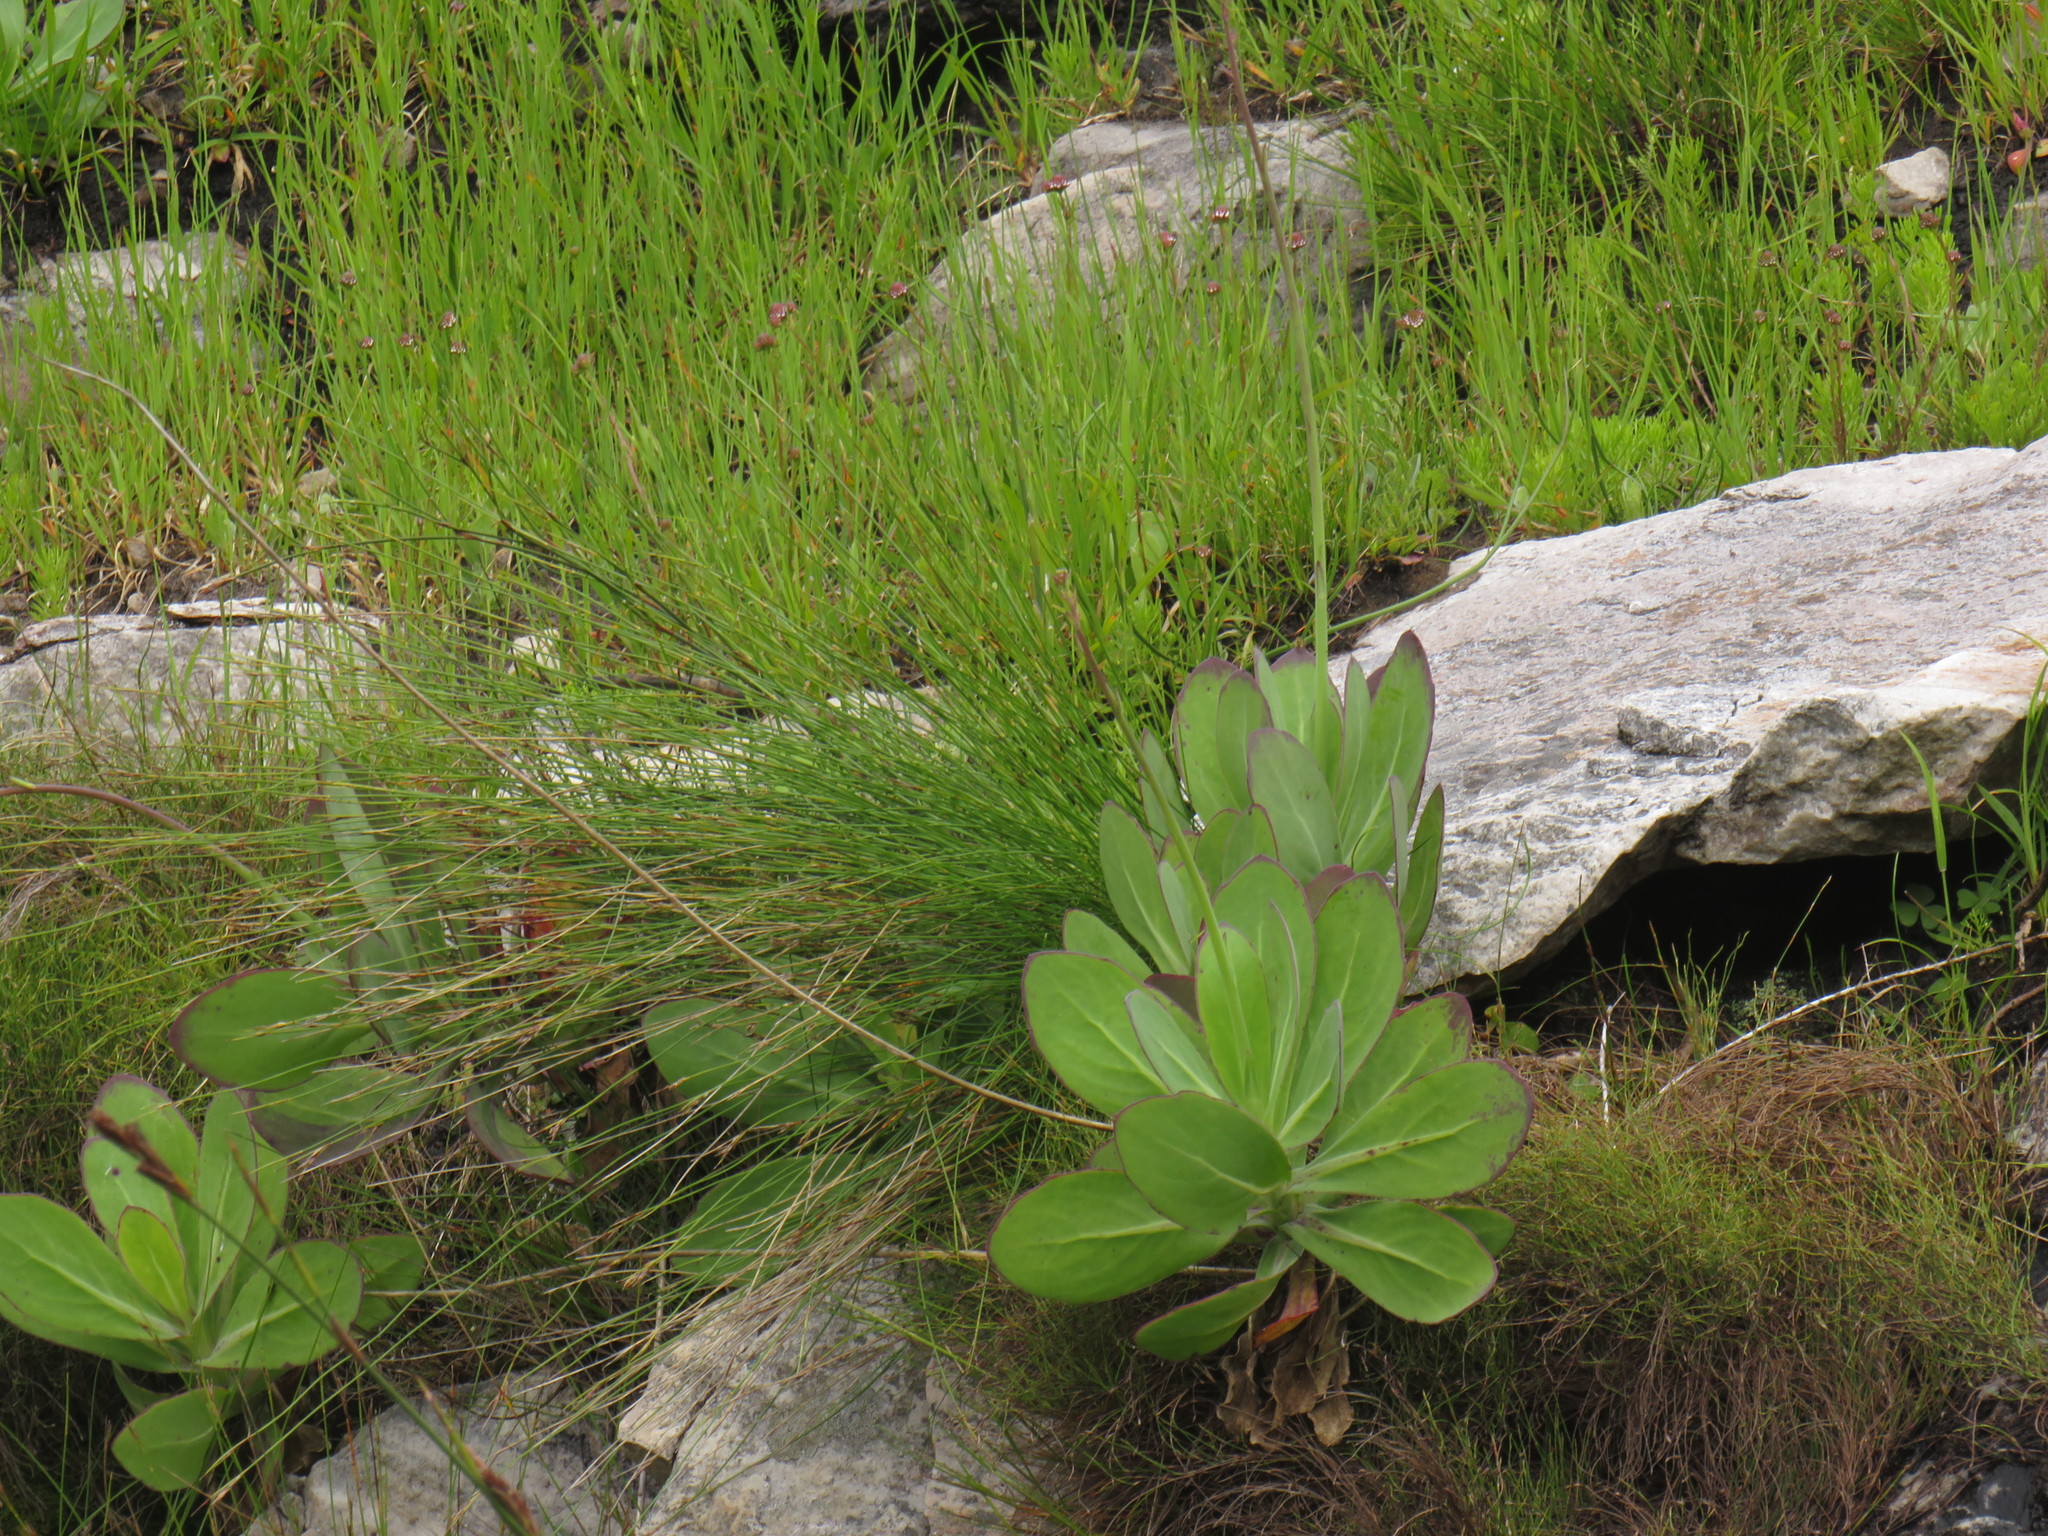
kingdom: Plantae
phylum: Tracheophyta
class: Magnoliopsida
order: Asterales
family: Asteraceae
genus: Othonna
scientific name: Othonna quinquedentata
